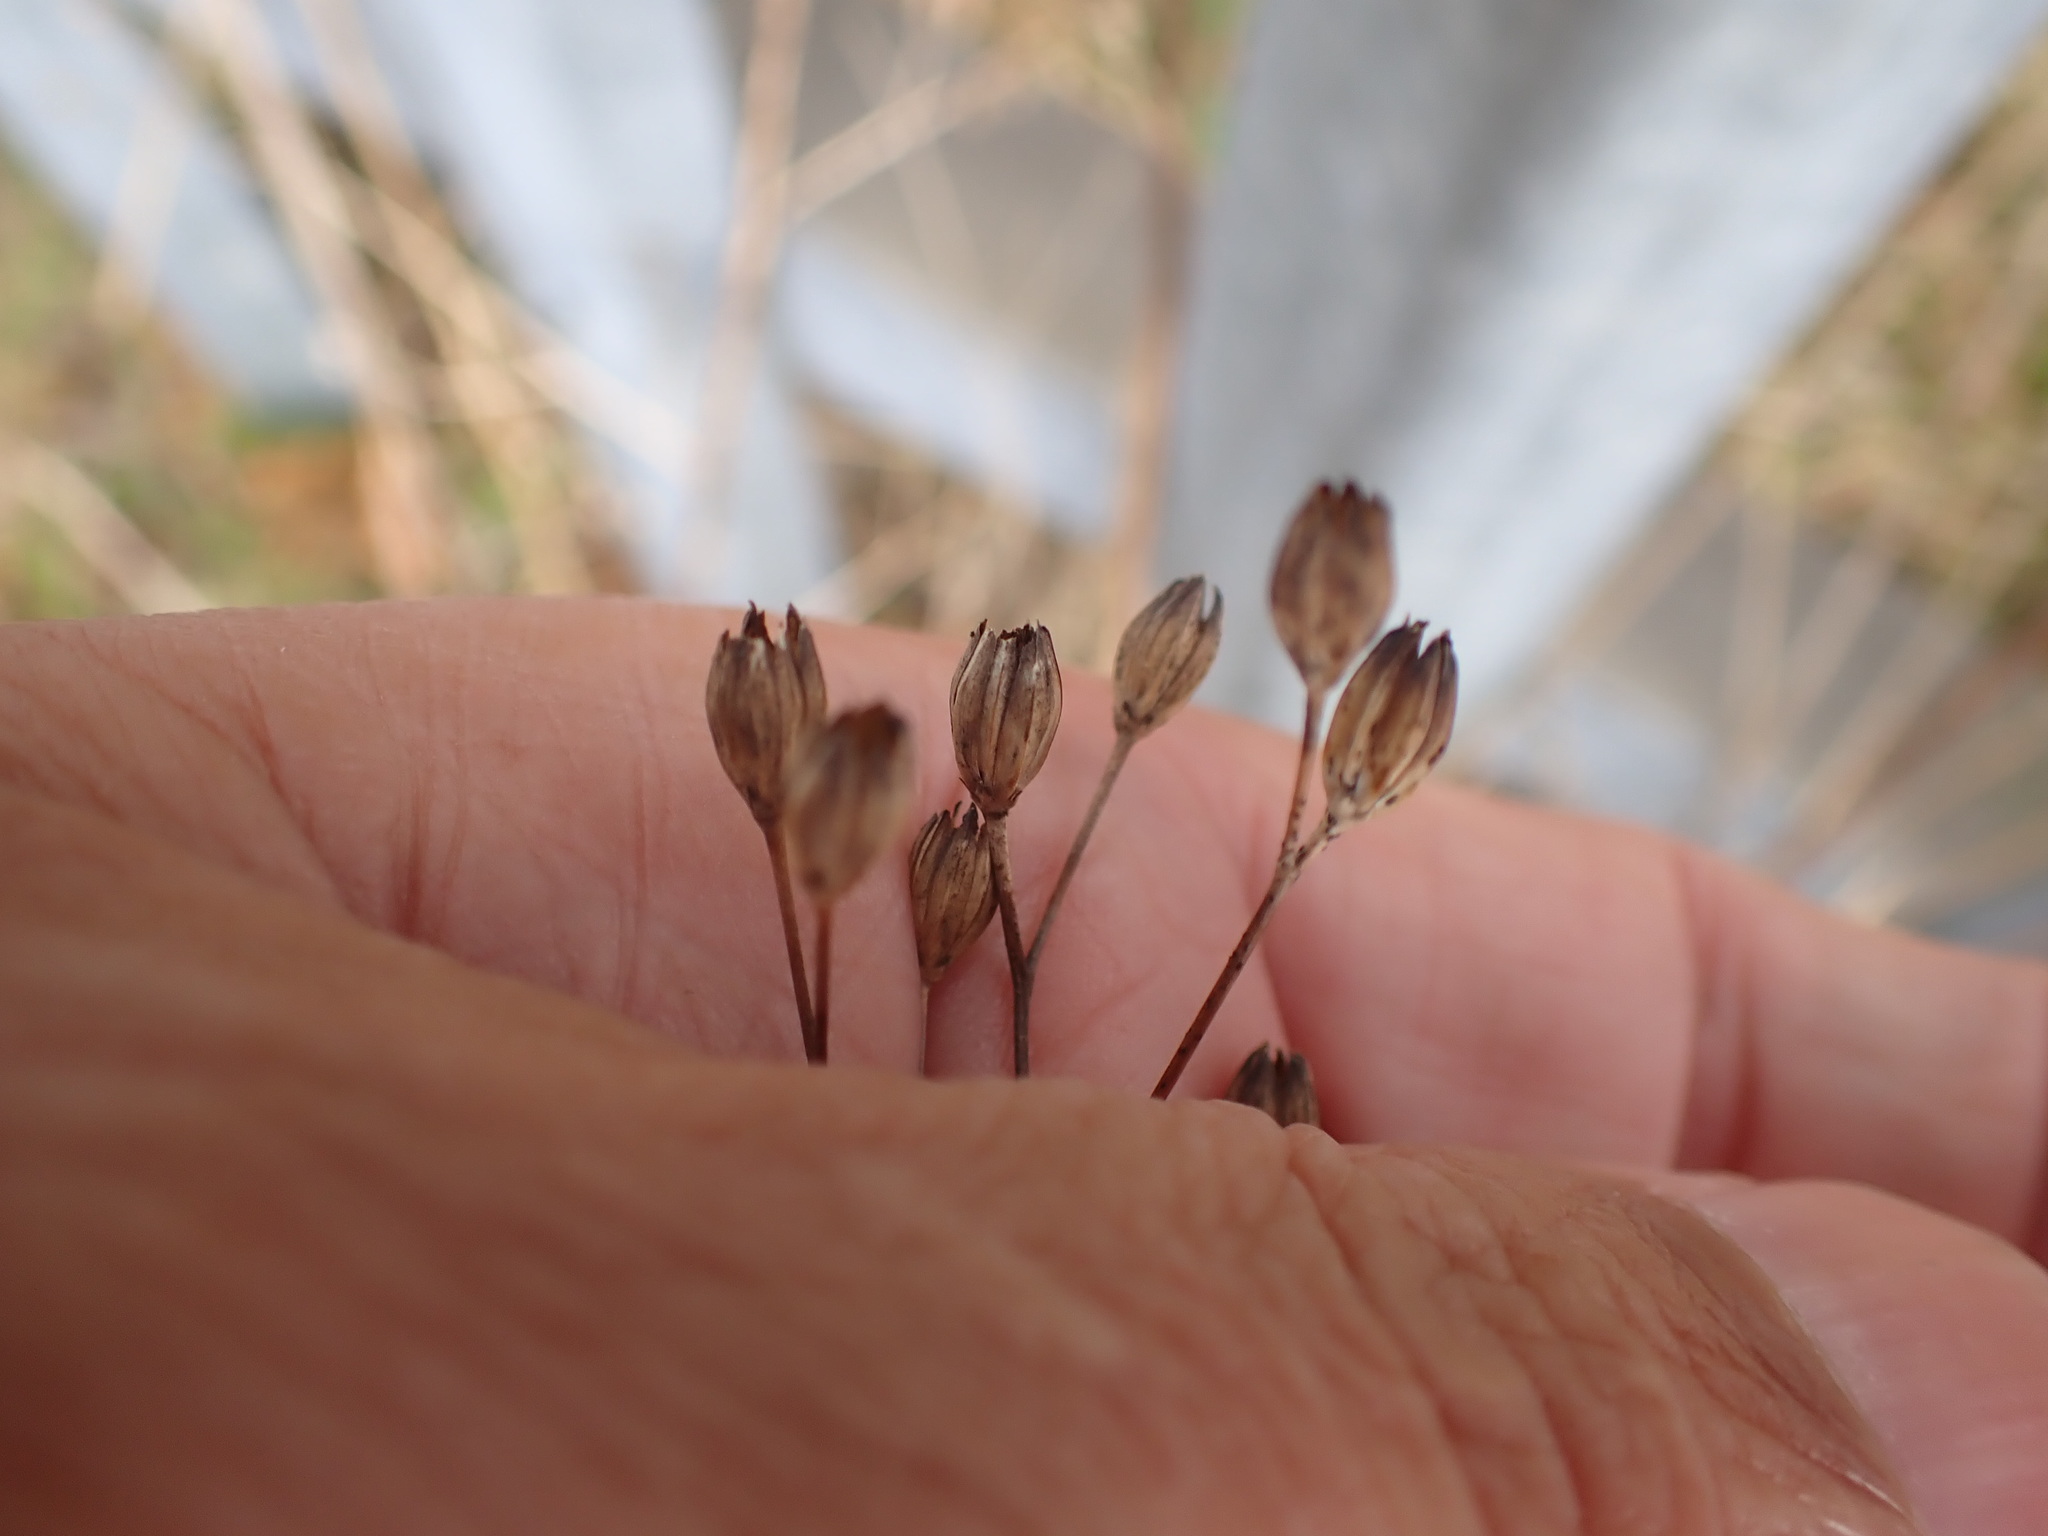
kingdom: Plantae
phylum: Tracheophyta
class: Magnoliopsida
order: Asterales
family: Asteraceae
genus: Lapsana
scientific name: Lapsana communis
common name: Nipplewort
